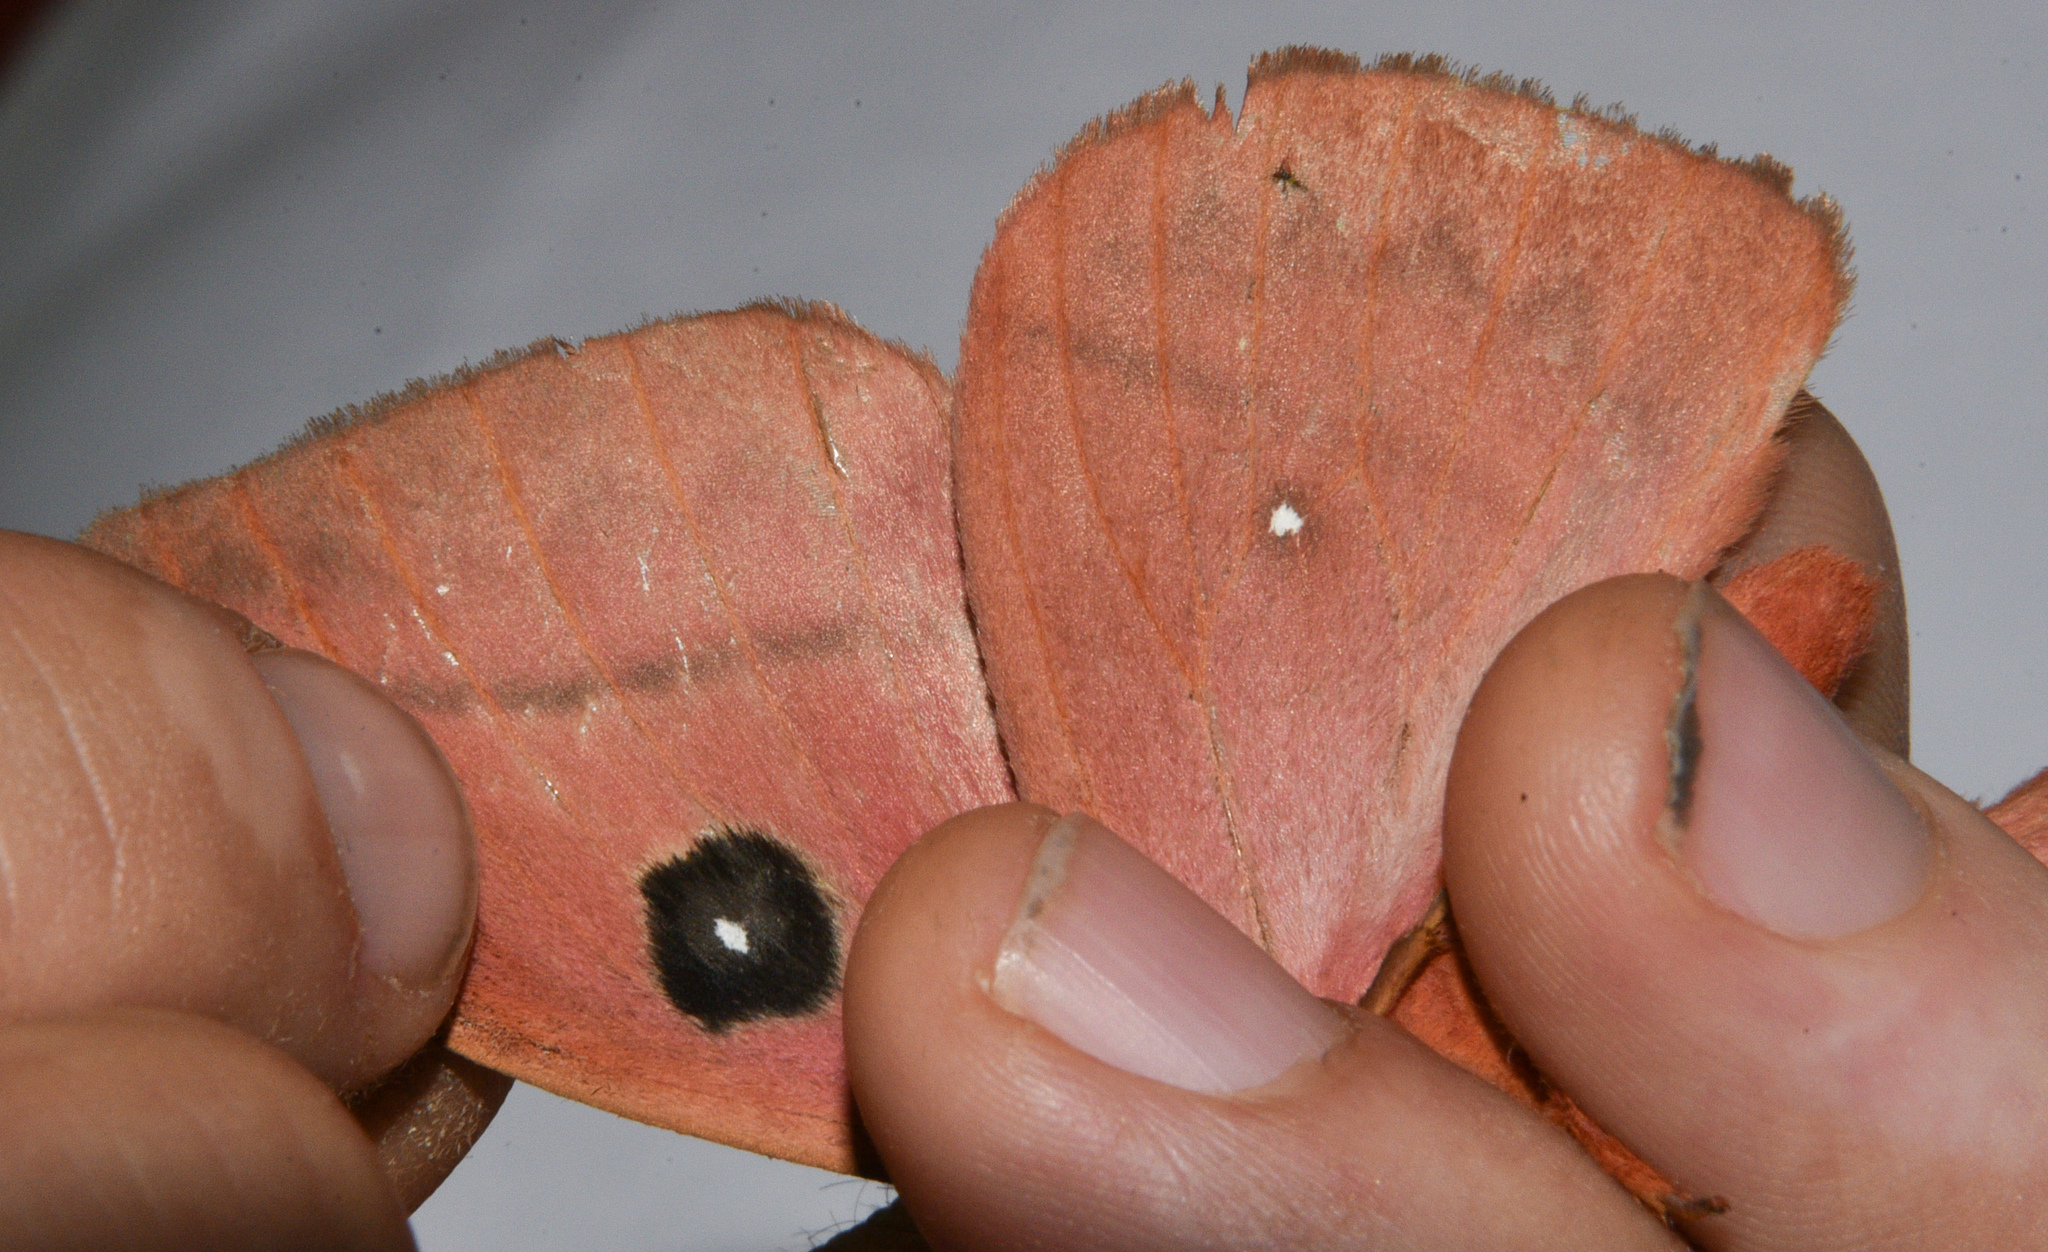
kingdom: Animalia
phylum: Arthropoda
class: Insecta
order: Lepidoptera
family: Saturniidae
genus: Automeris
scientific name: Automeris arianae
